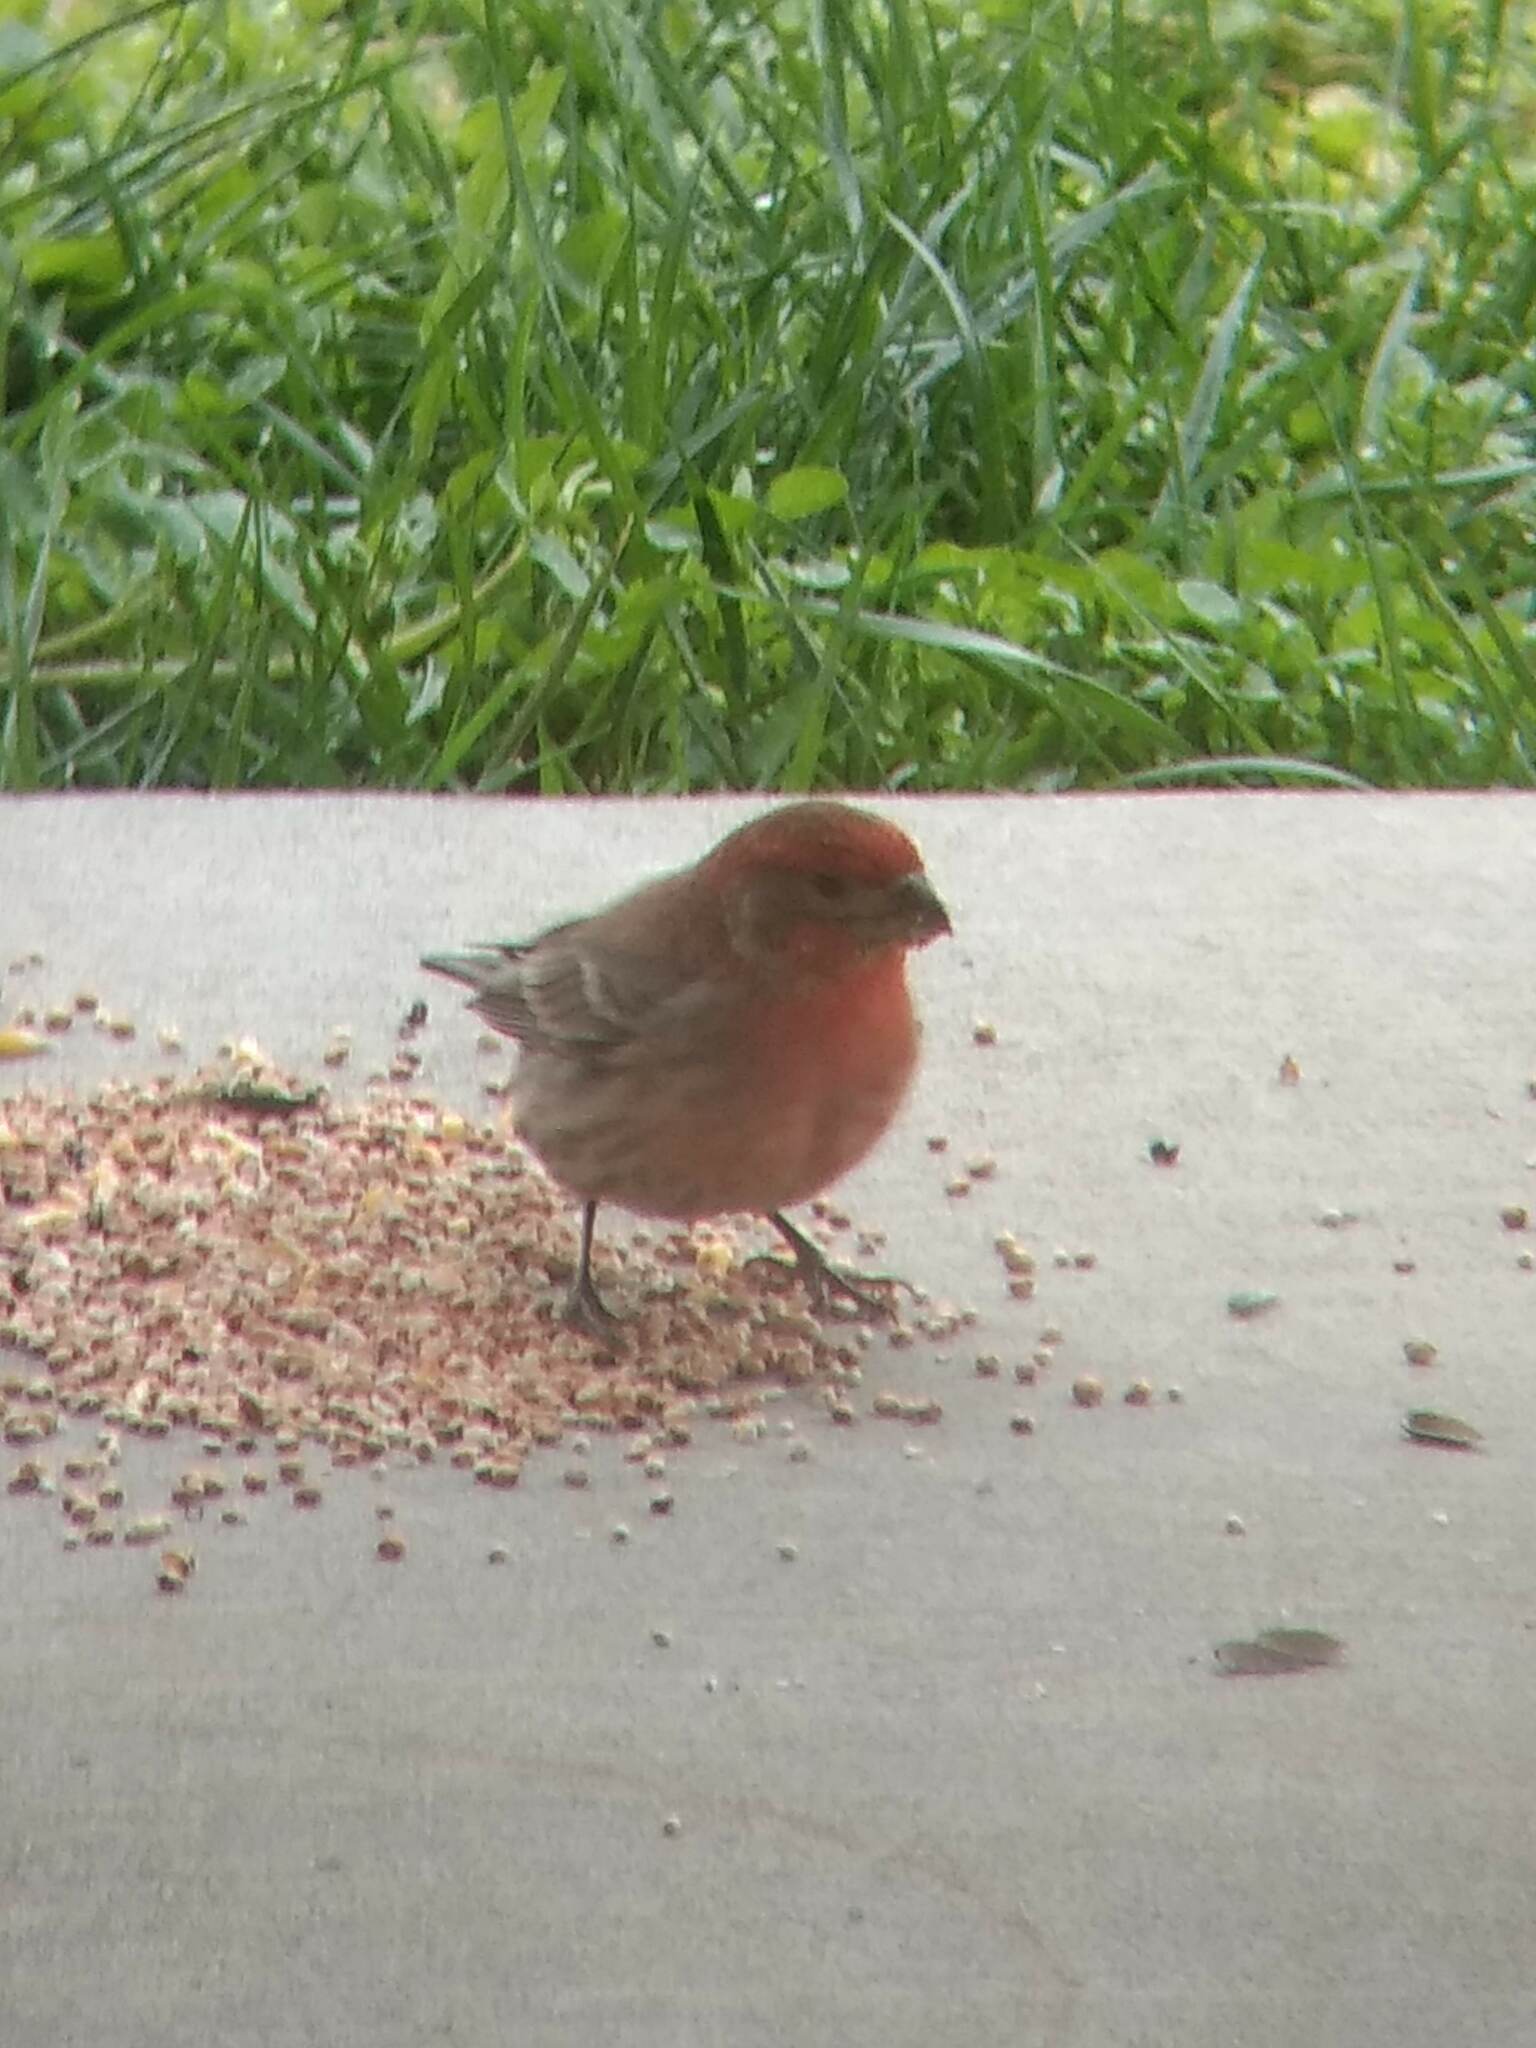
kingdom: Animalia
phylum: Chordata
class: Aves
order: Passeriformes
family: Fringillidae
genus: Haemorhous
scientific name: Haemorhous mexicanus
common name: House finch
